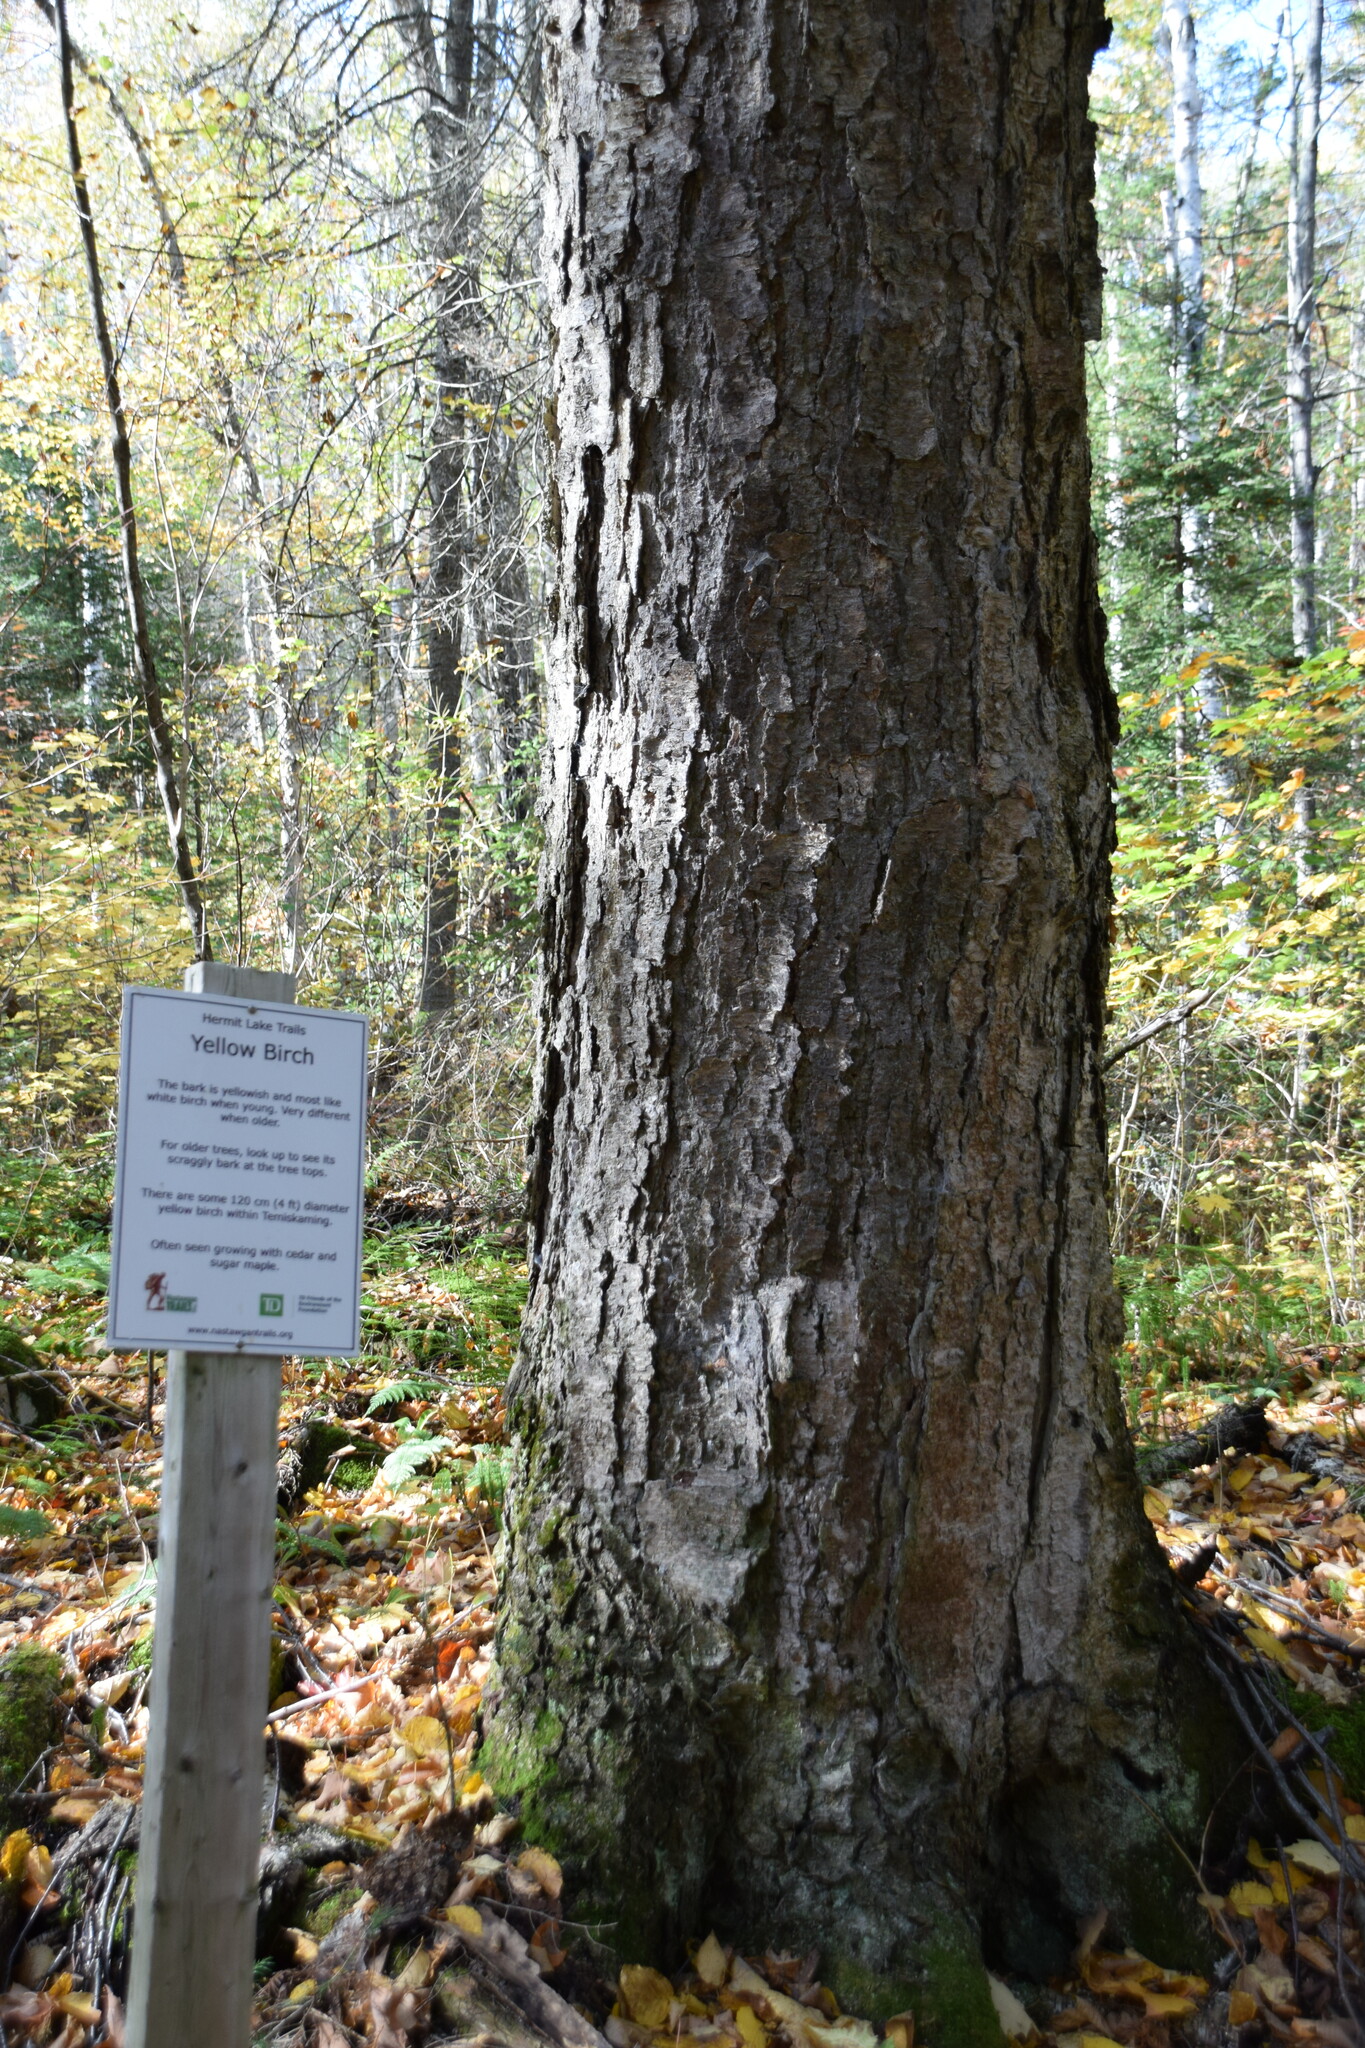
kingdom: Plantae
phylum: Tracheophyta
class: Magnoliopsida
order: Fagales
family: Betulaceae
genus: Betula
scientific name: Betula alleghaniensis
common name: Yellow birch
